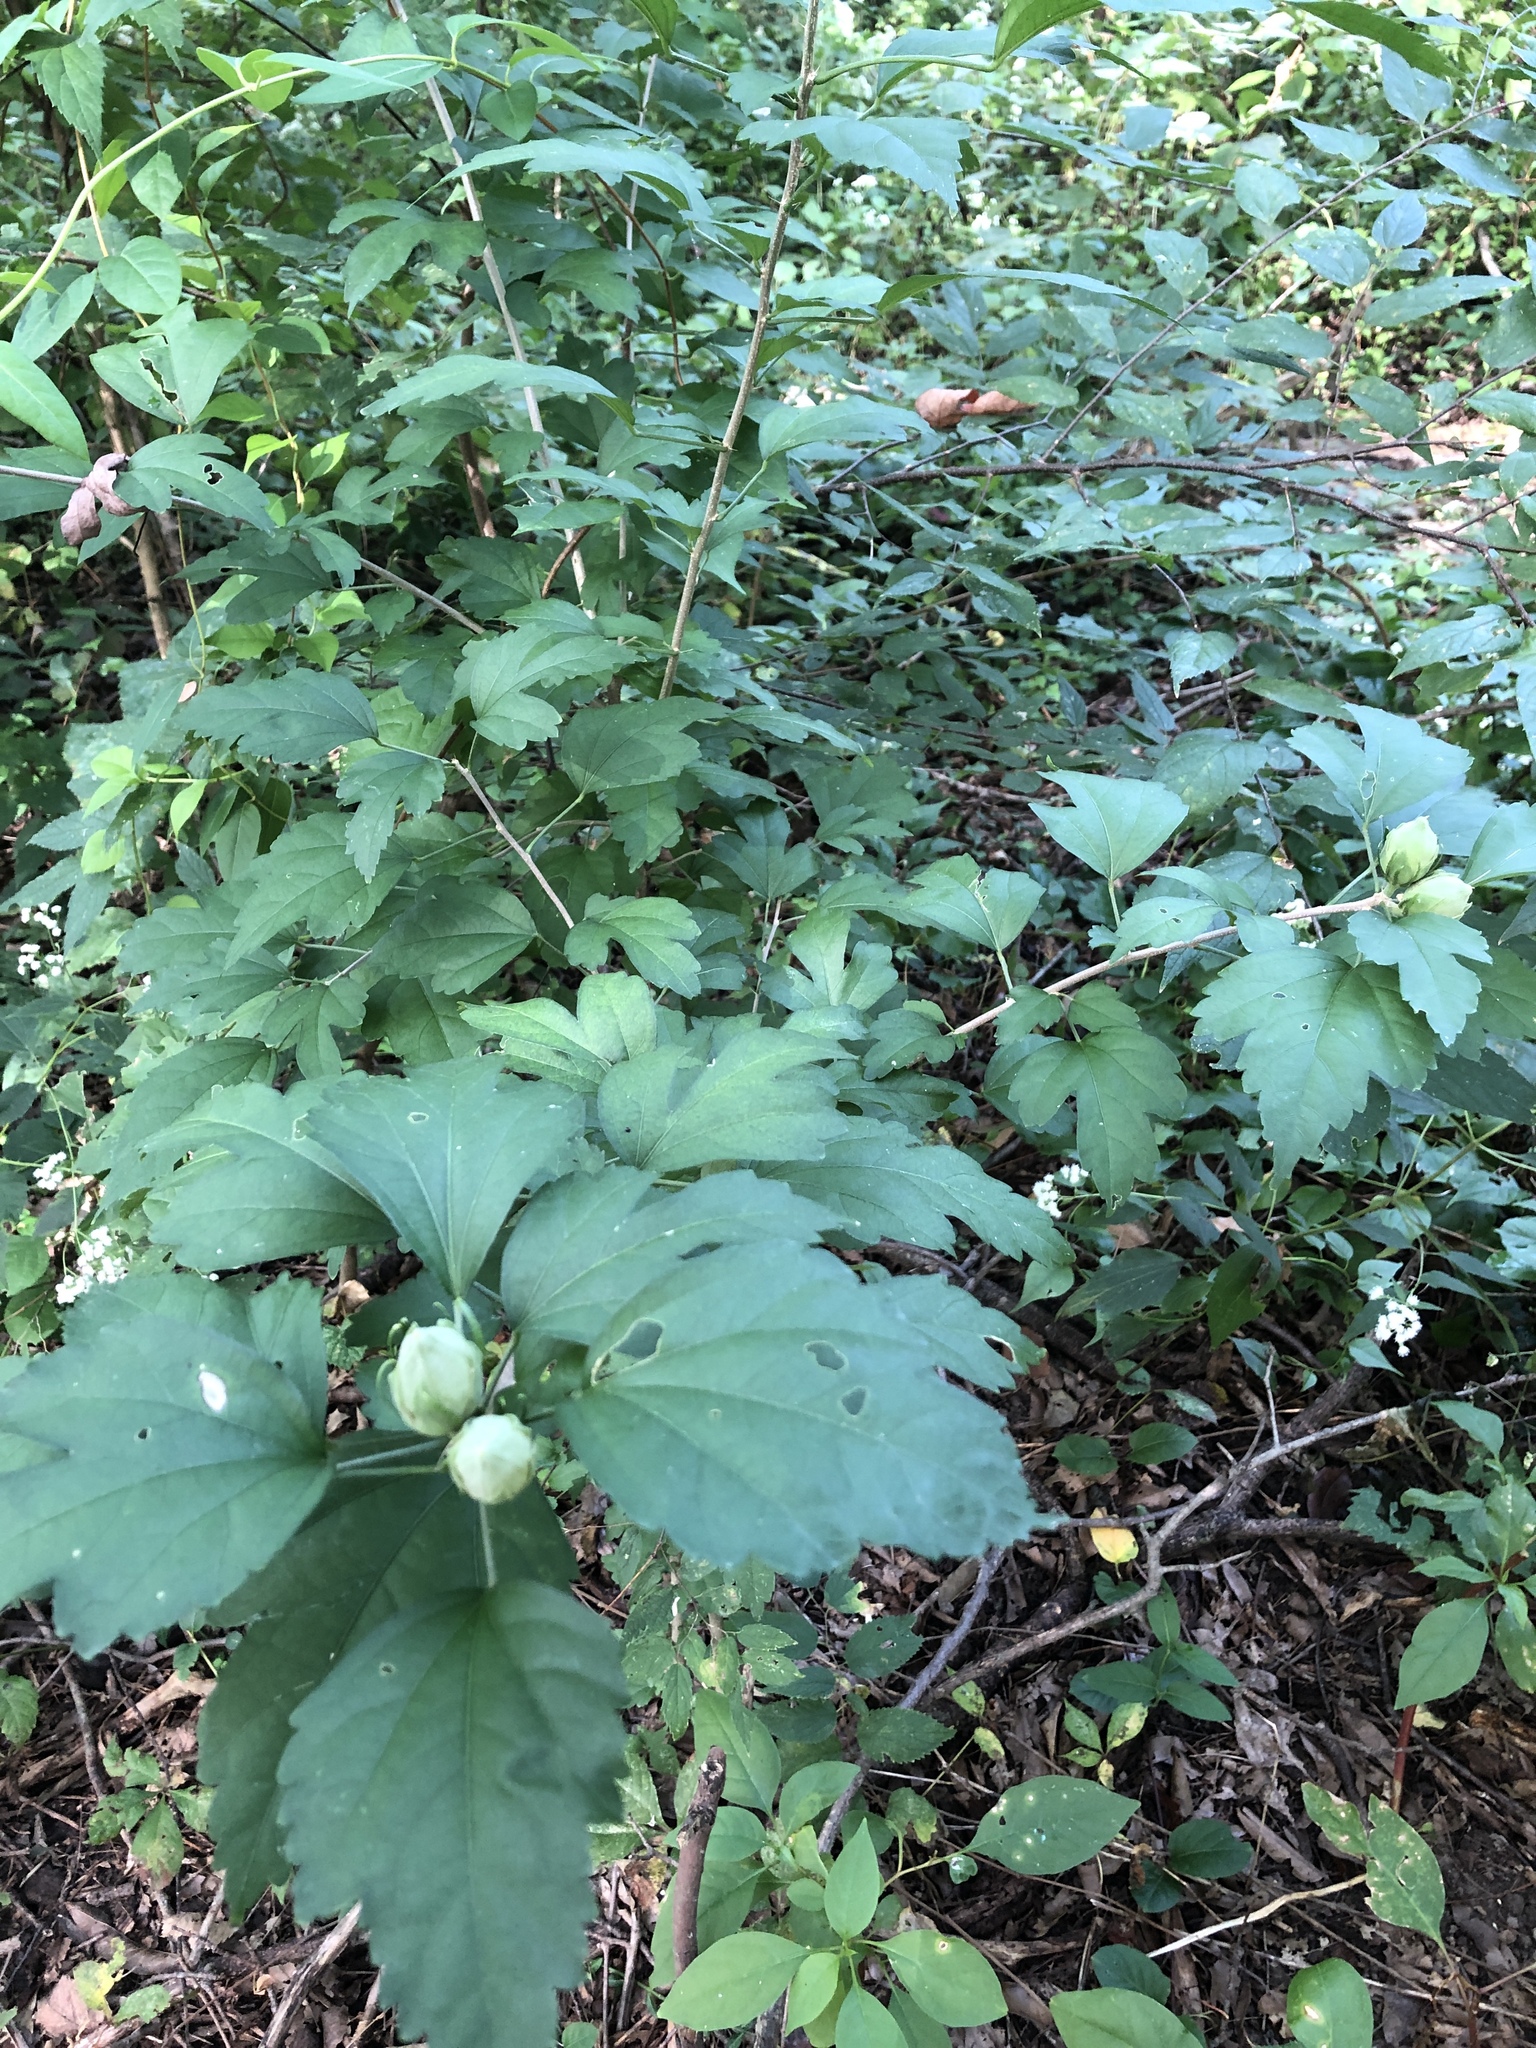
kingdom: Plantae
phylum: Tracheophyta
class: Magnoliopsida
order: Malvales
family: Malvaceae
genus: Hibiscus
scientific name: Hibiscus syriacus
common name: Syrian ketmia
